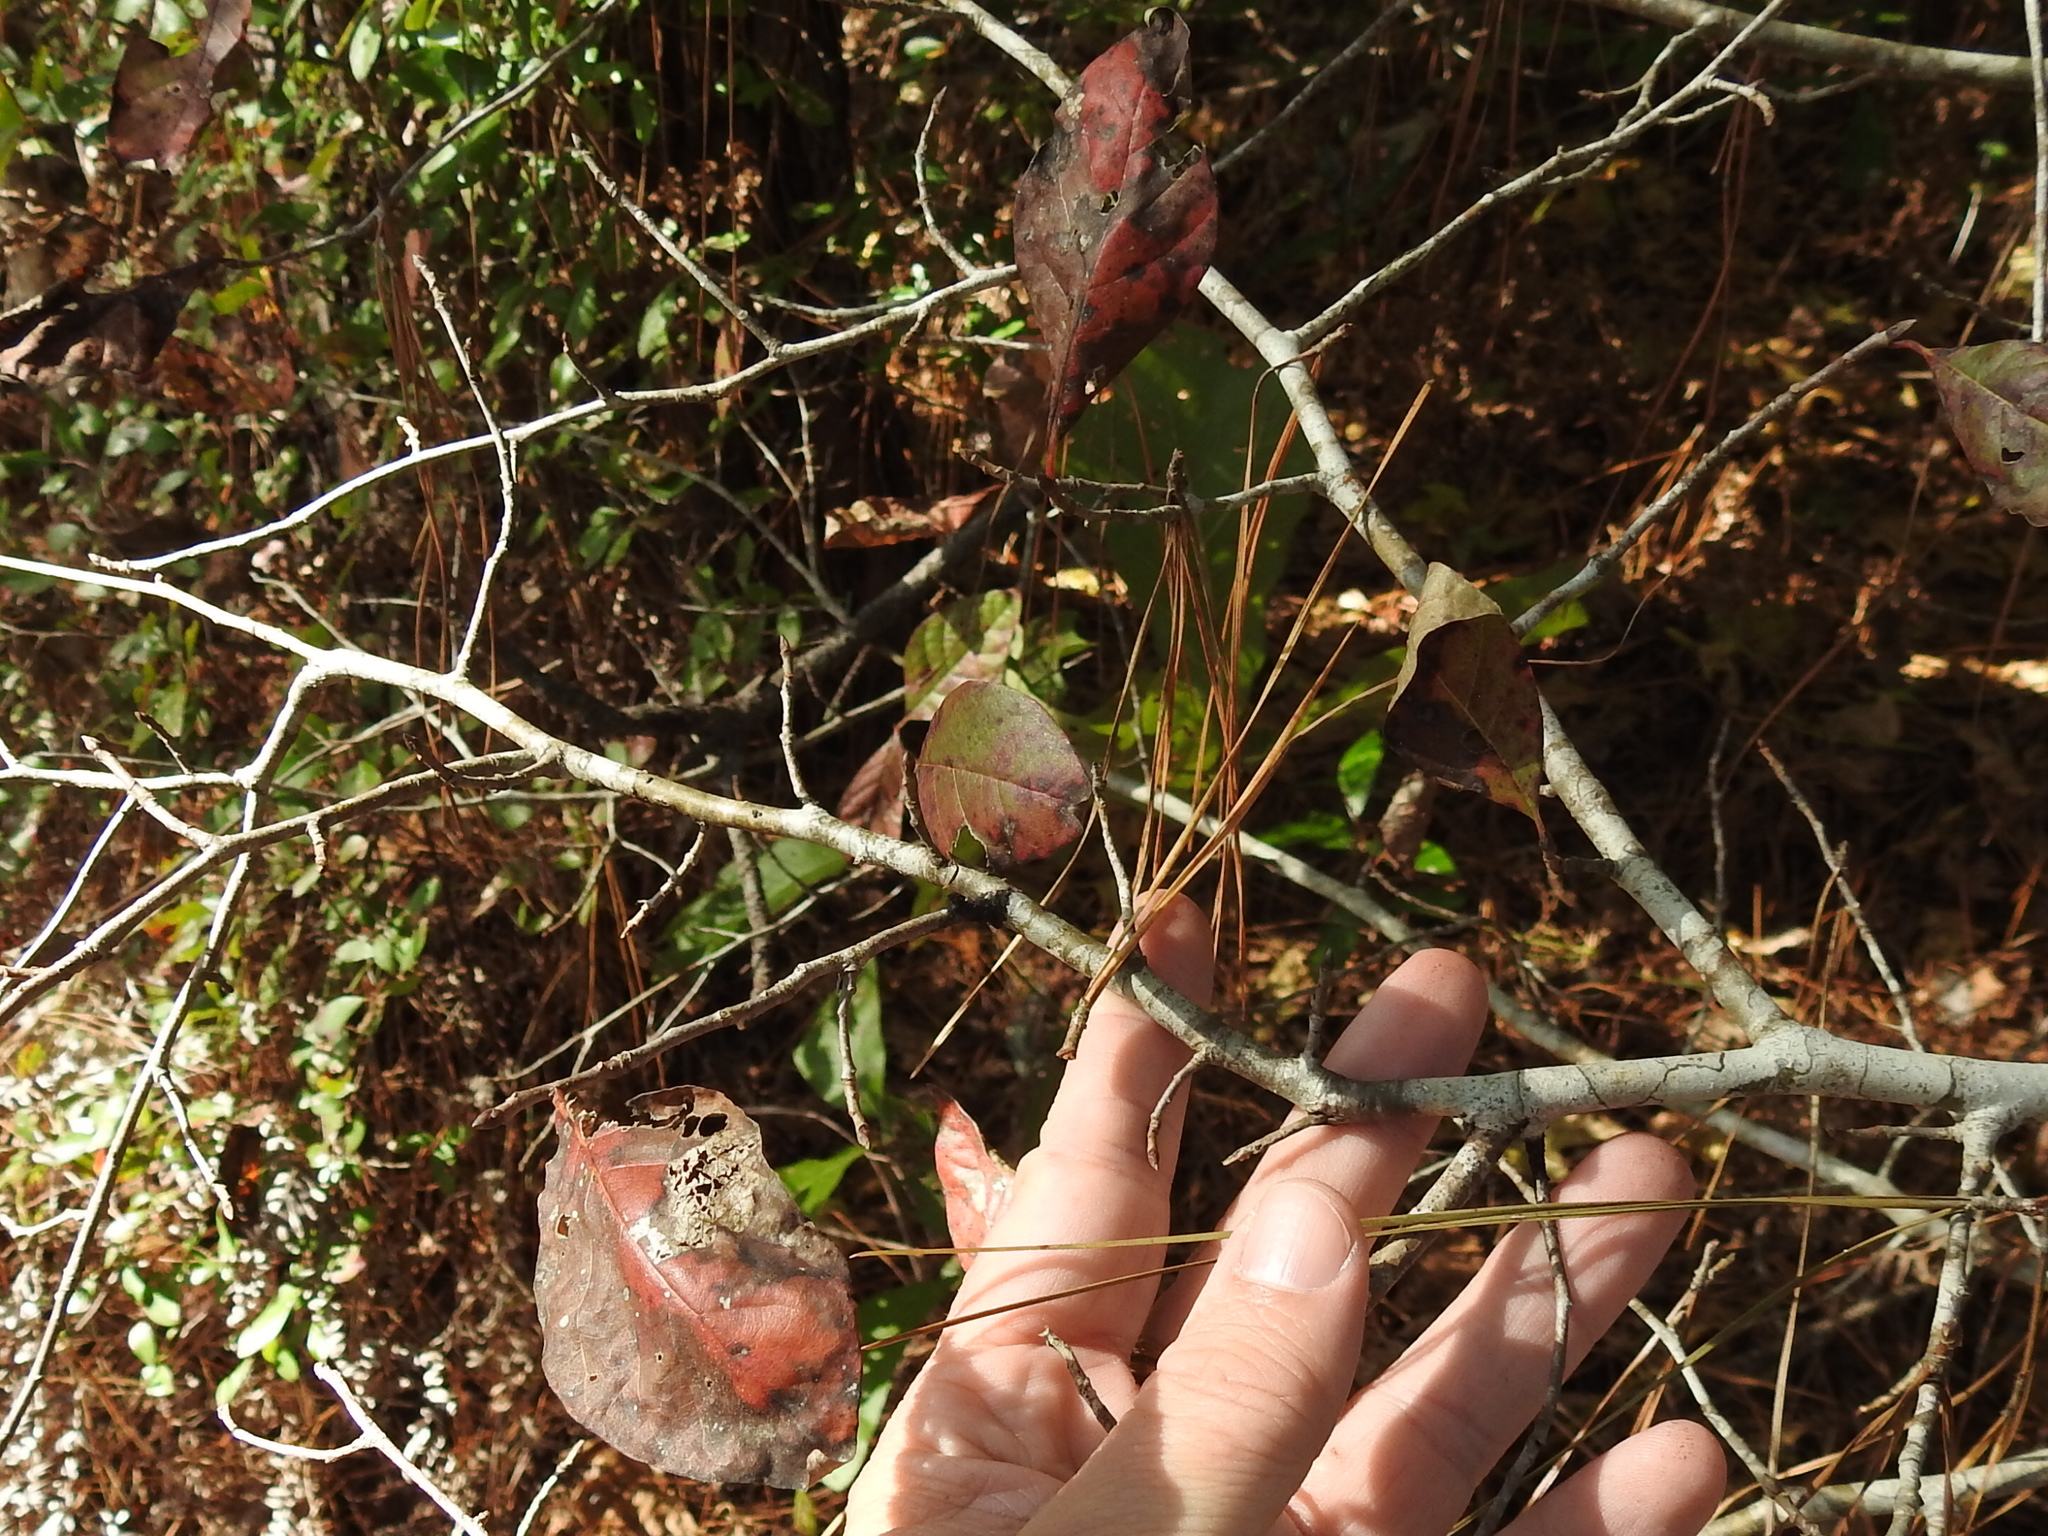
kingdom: Plantae
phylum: Tracheophyta
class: Magnoliopsida
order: Cornales
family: Nyssaceae
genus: Nyssa
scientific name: Nyssa sylvatica
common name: Black tupelo
